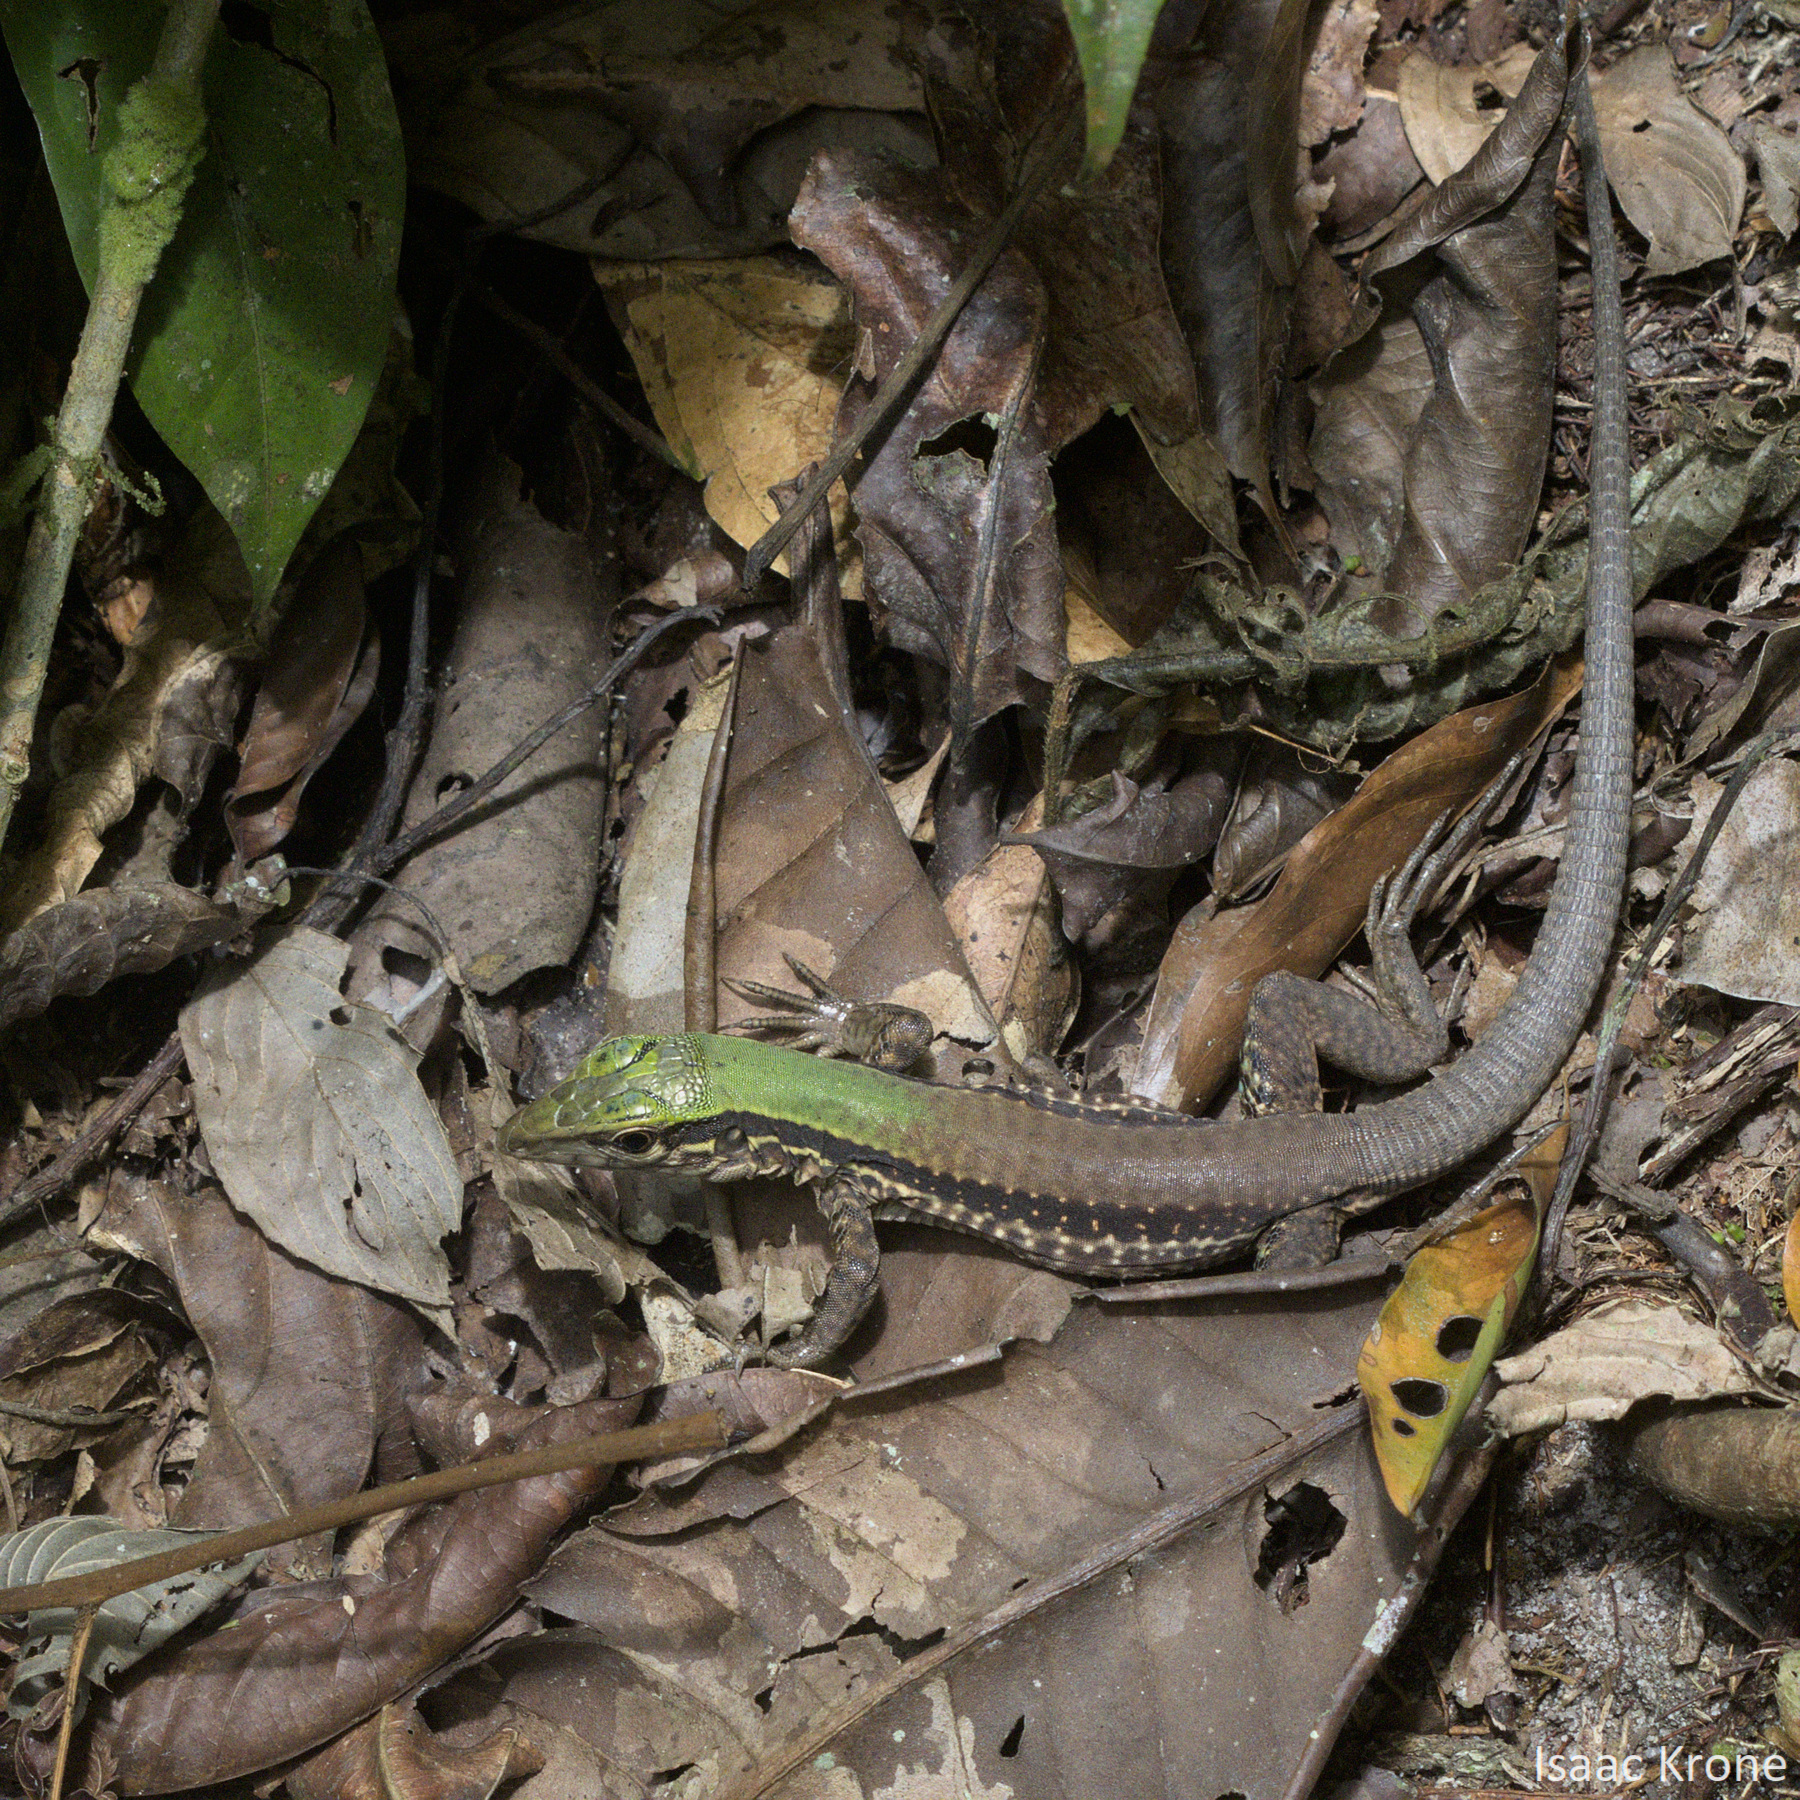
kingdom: Animalia
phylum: Chordata
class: Squamata
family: Teiidae
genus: Ameiva
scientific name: Ameiva ameiva
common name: Giant ameiva
